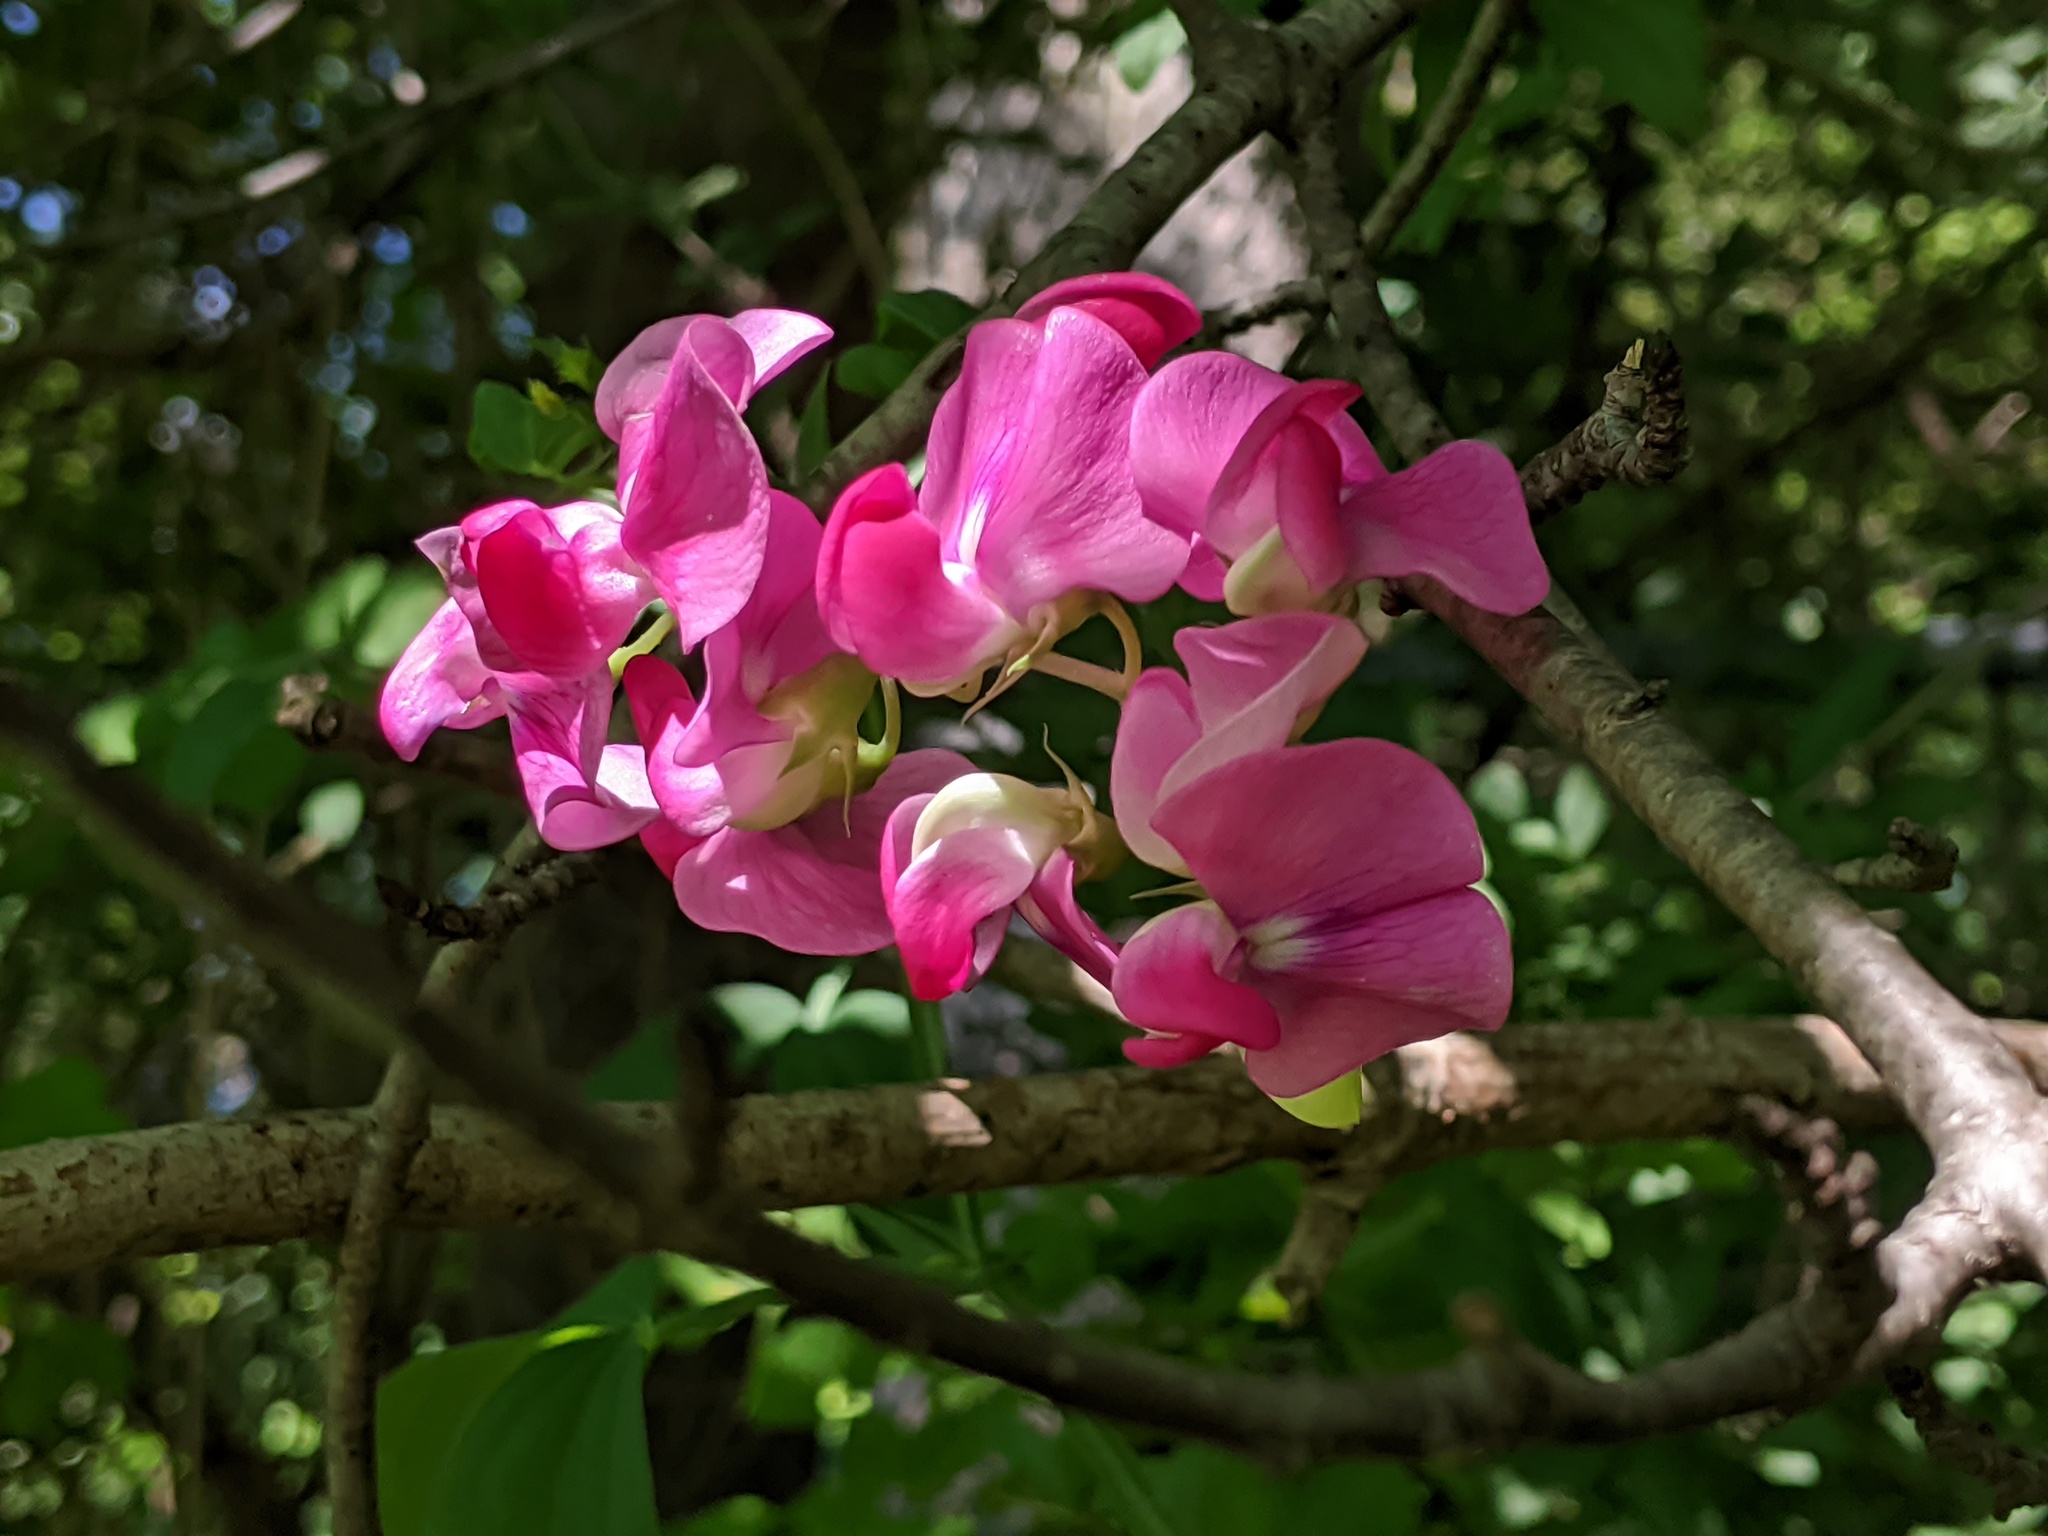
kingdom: Plantae
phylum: Tracheophyta
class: Magnoliopsida
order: Fabales
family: Fabaceae
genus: Lathyrus
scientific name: Lathyrus latifolius
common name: Perennial pea
